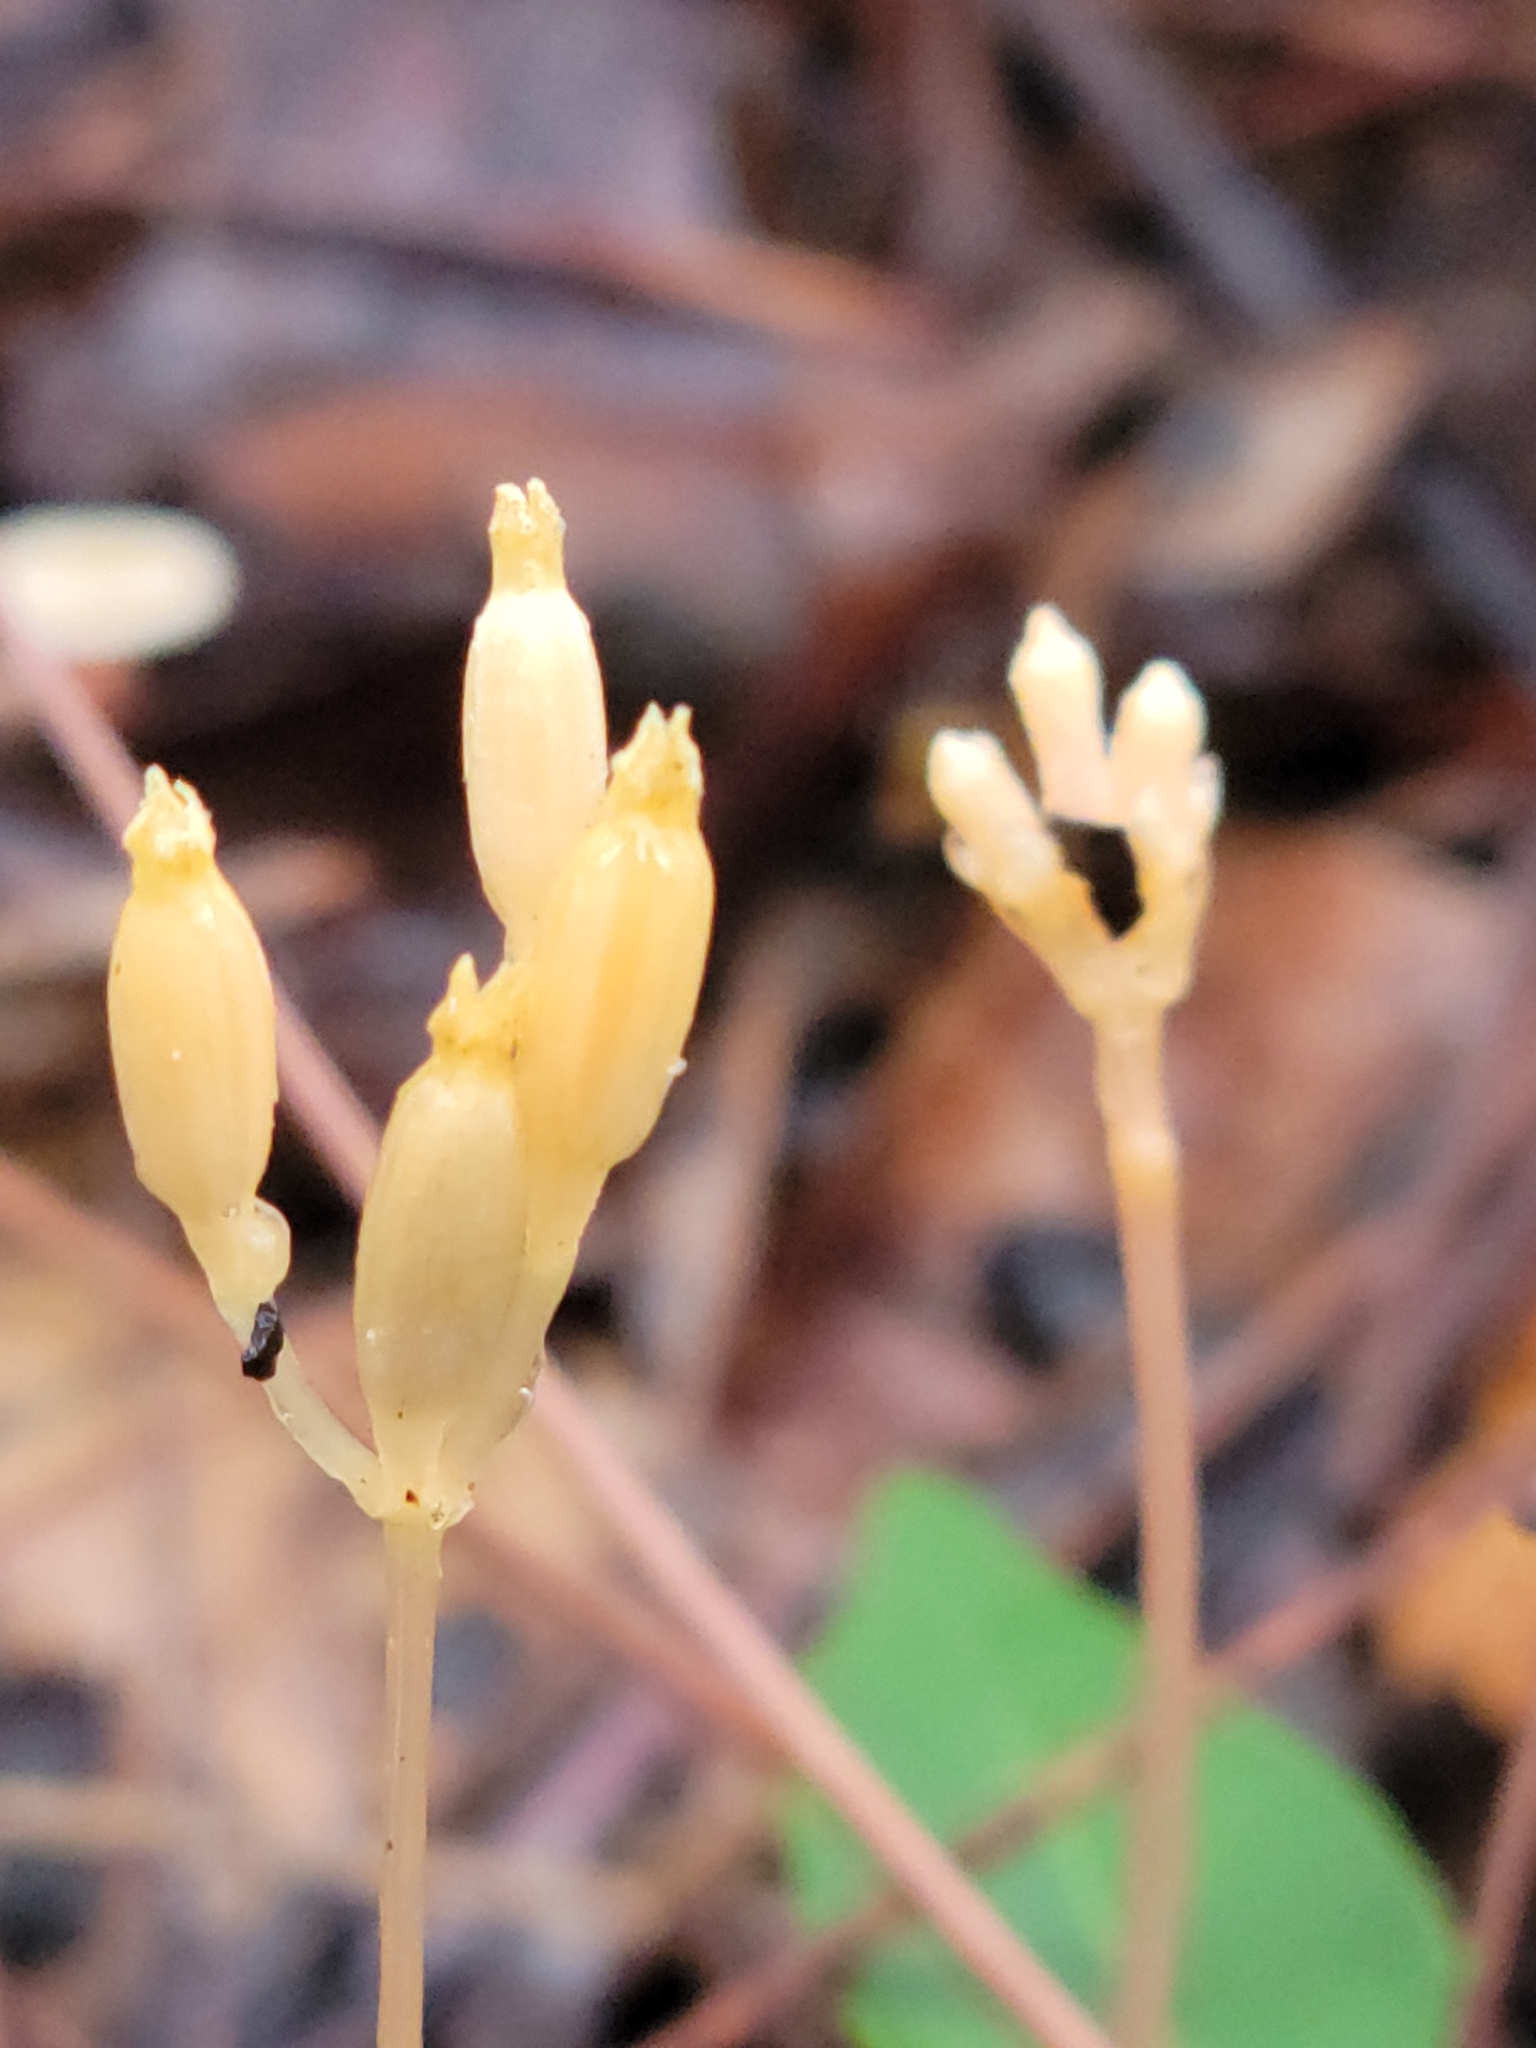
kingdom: Plantae
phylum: Tracheophyta
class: Magnoliopsida
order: Gentianales
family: Gentianaceae
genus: Voyria
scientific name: Voyria parasitica
